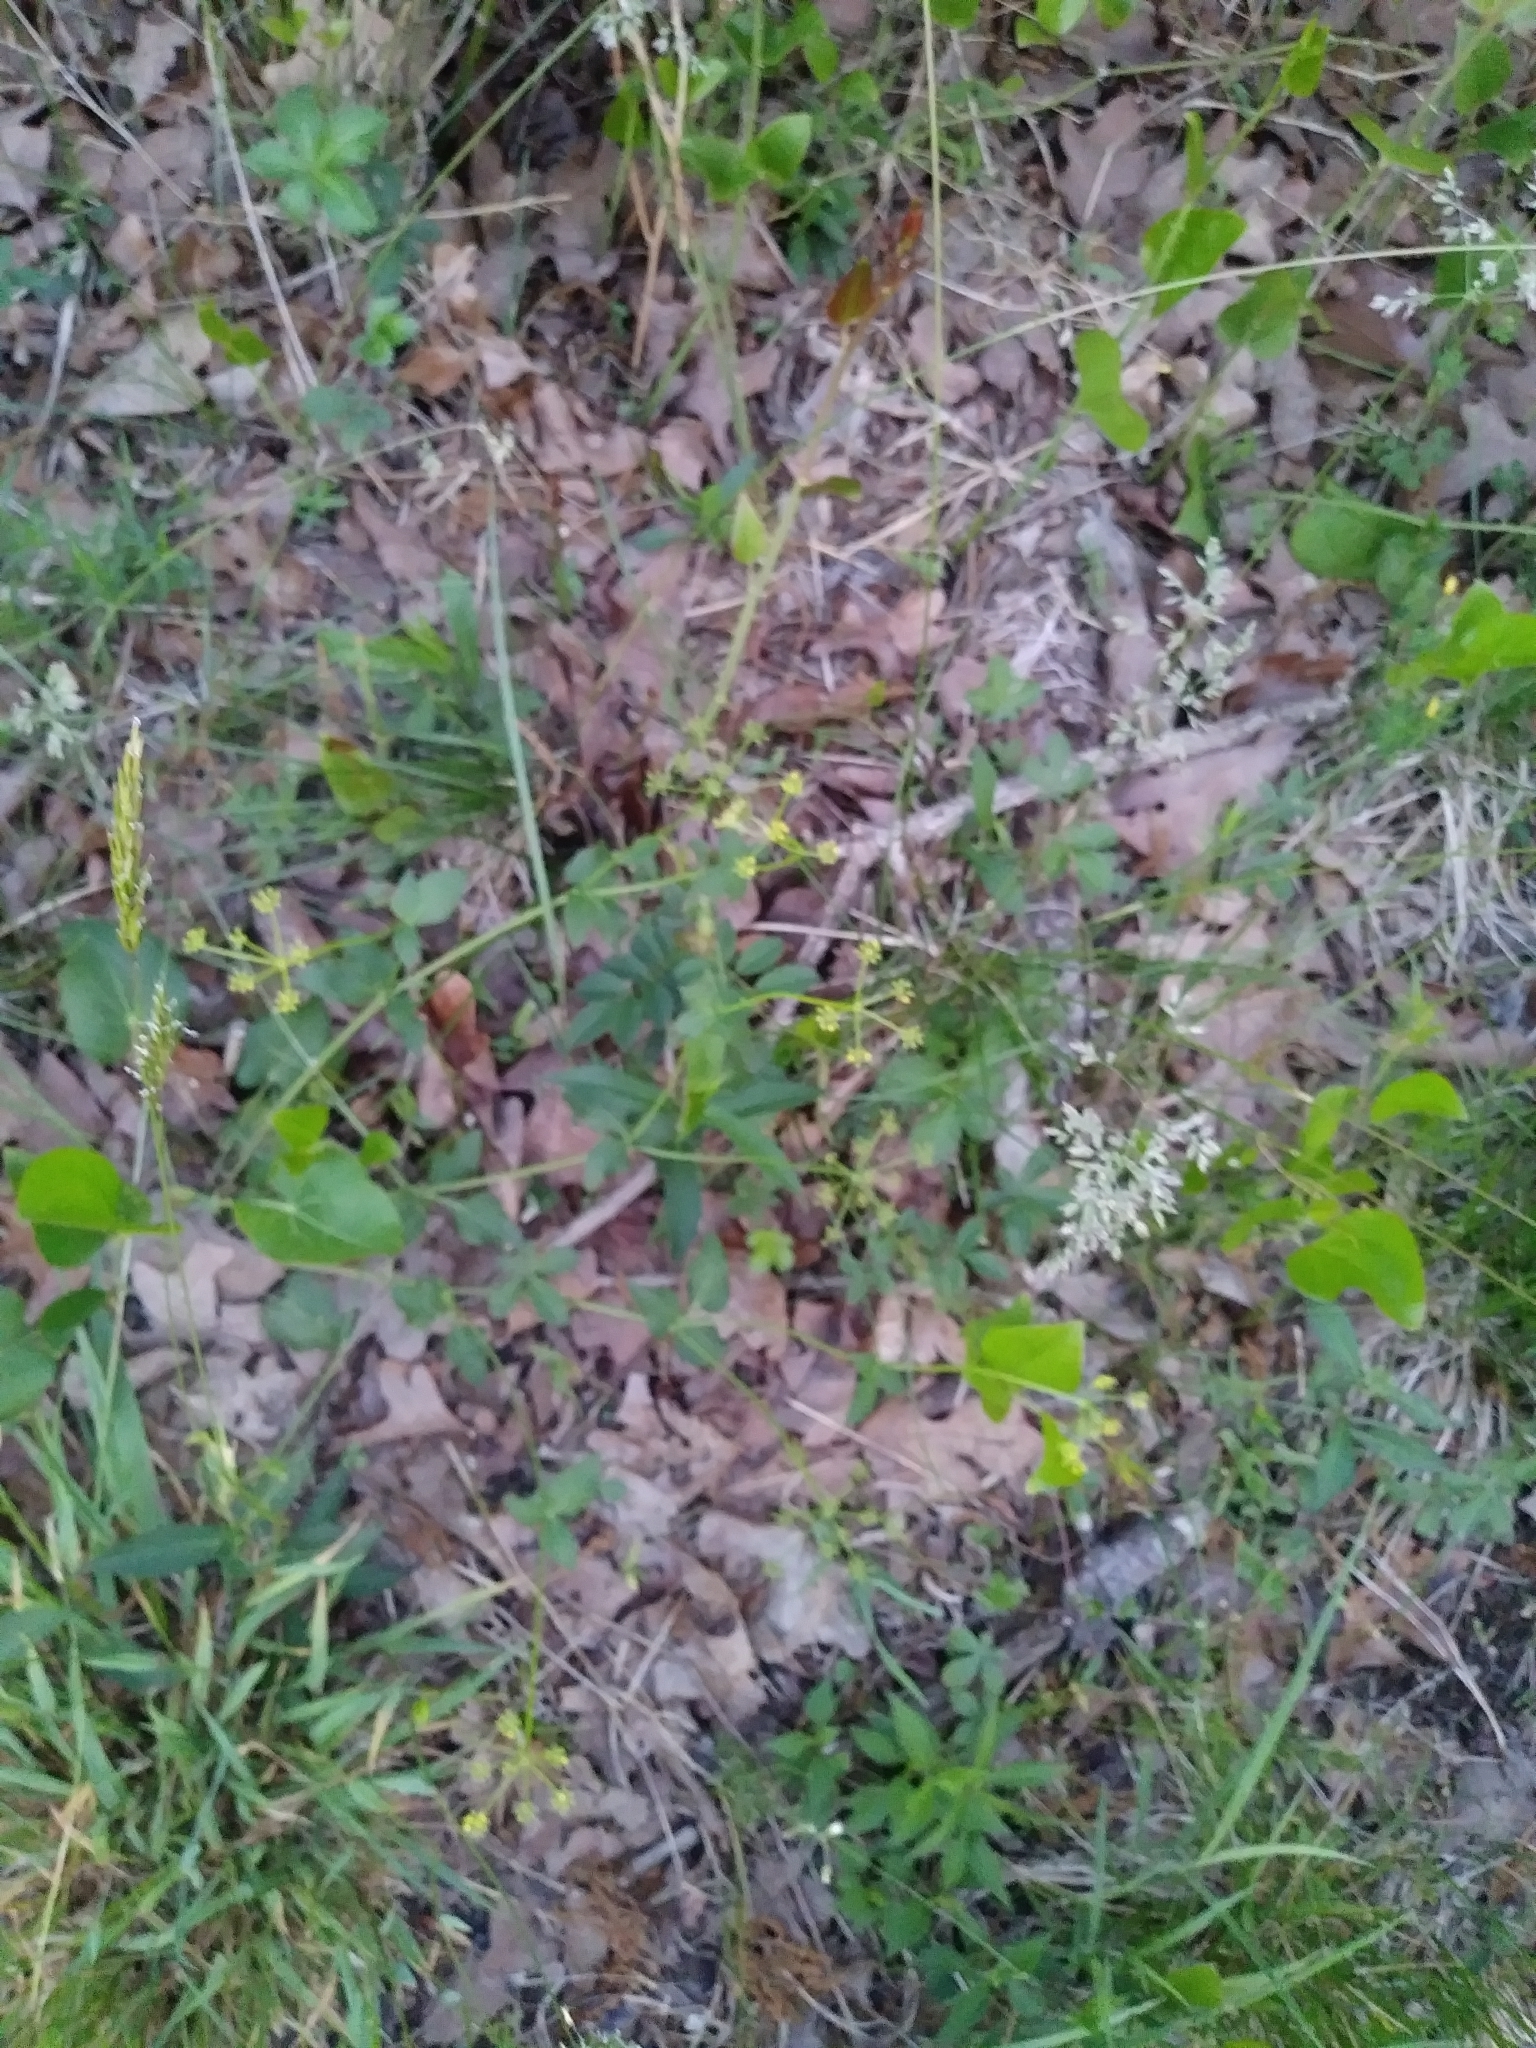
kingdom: Plantae
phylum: Tracheophyta
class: Magnoliopsida
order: Apiales
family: Apiaceae
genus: Zizia
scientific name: Zizia aptera
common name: Heart-leaved alexanders
